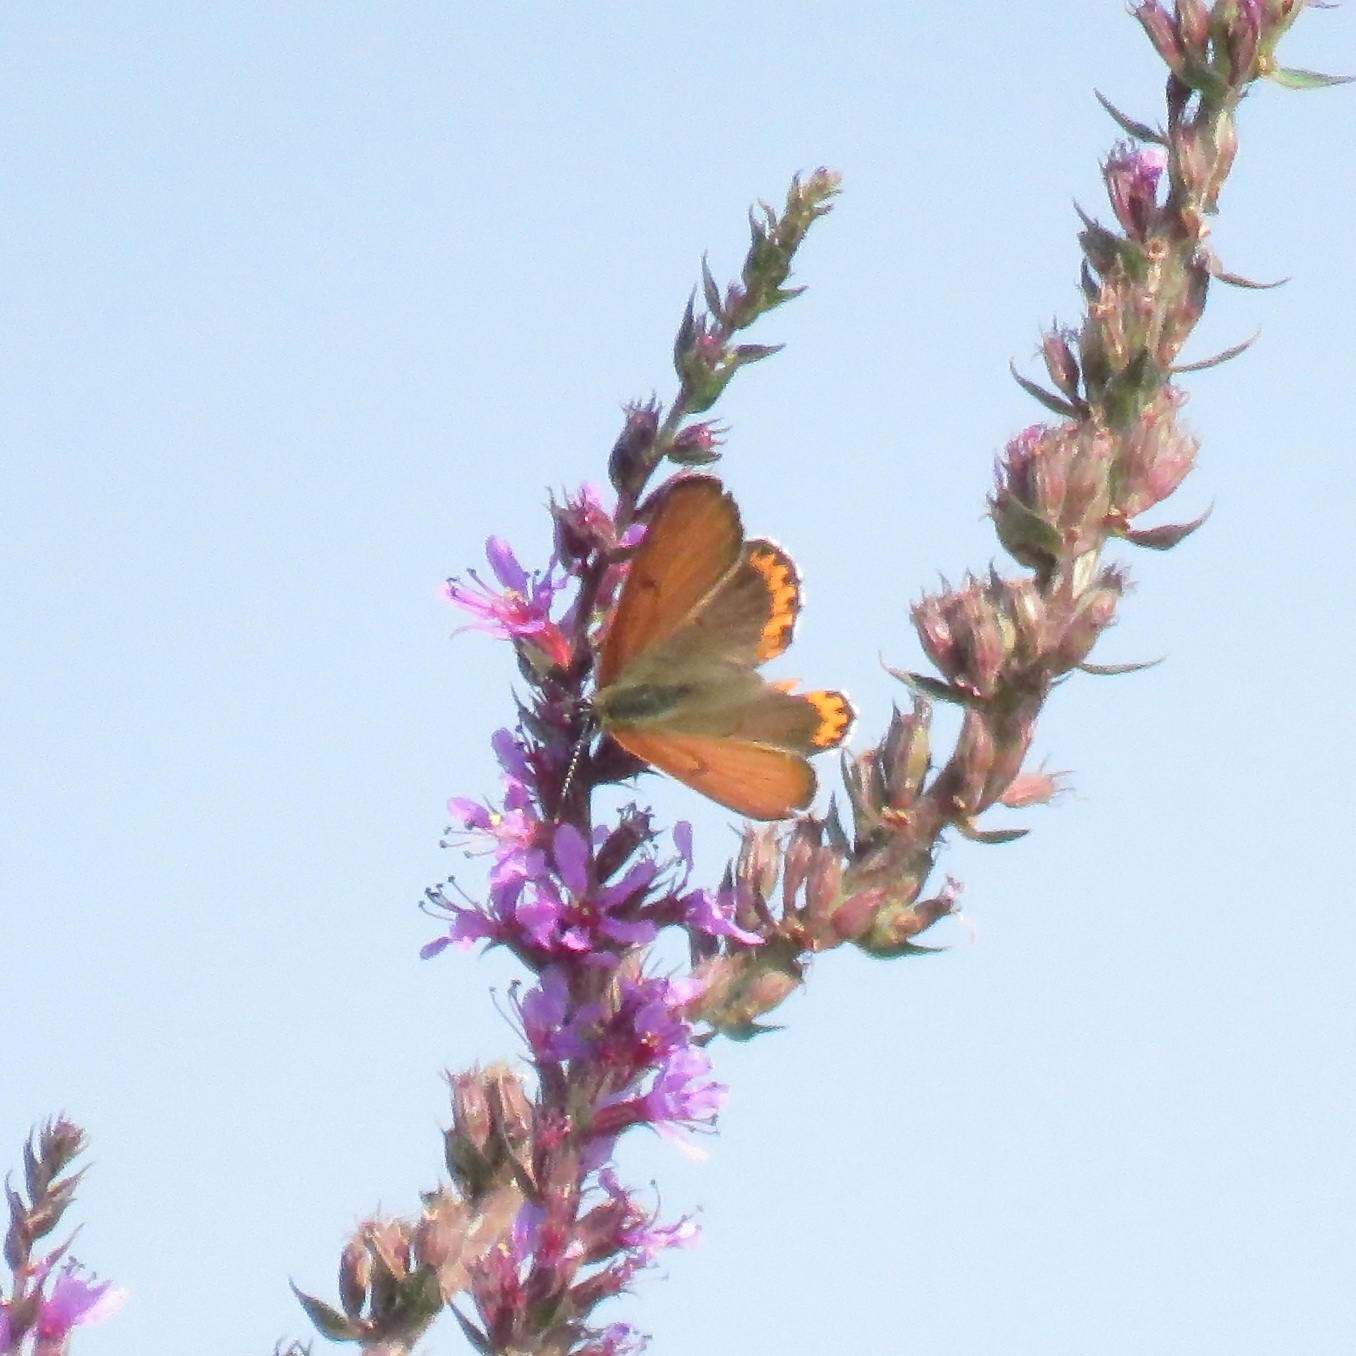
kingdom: Animalia
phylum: Arthropoda
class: Insecta
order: Lepidoptera
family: Lycaenidae
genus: Tharsalea
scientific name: Tharsalea hyllus
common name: Bronze copper
